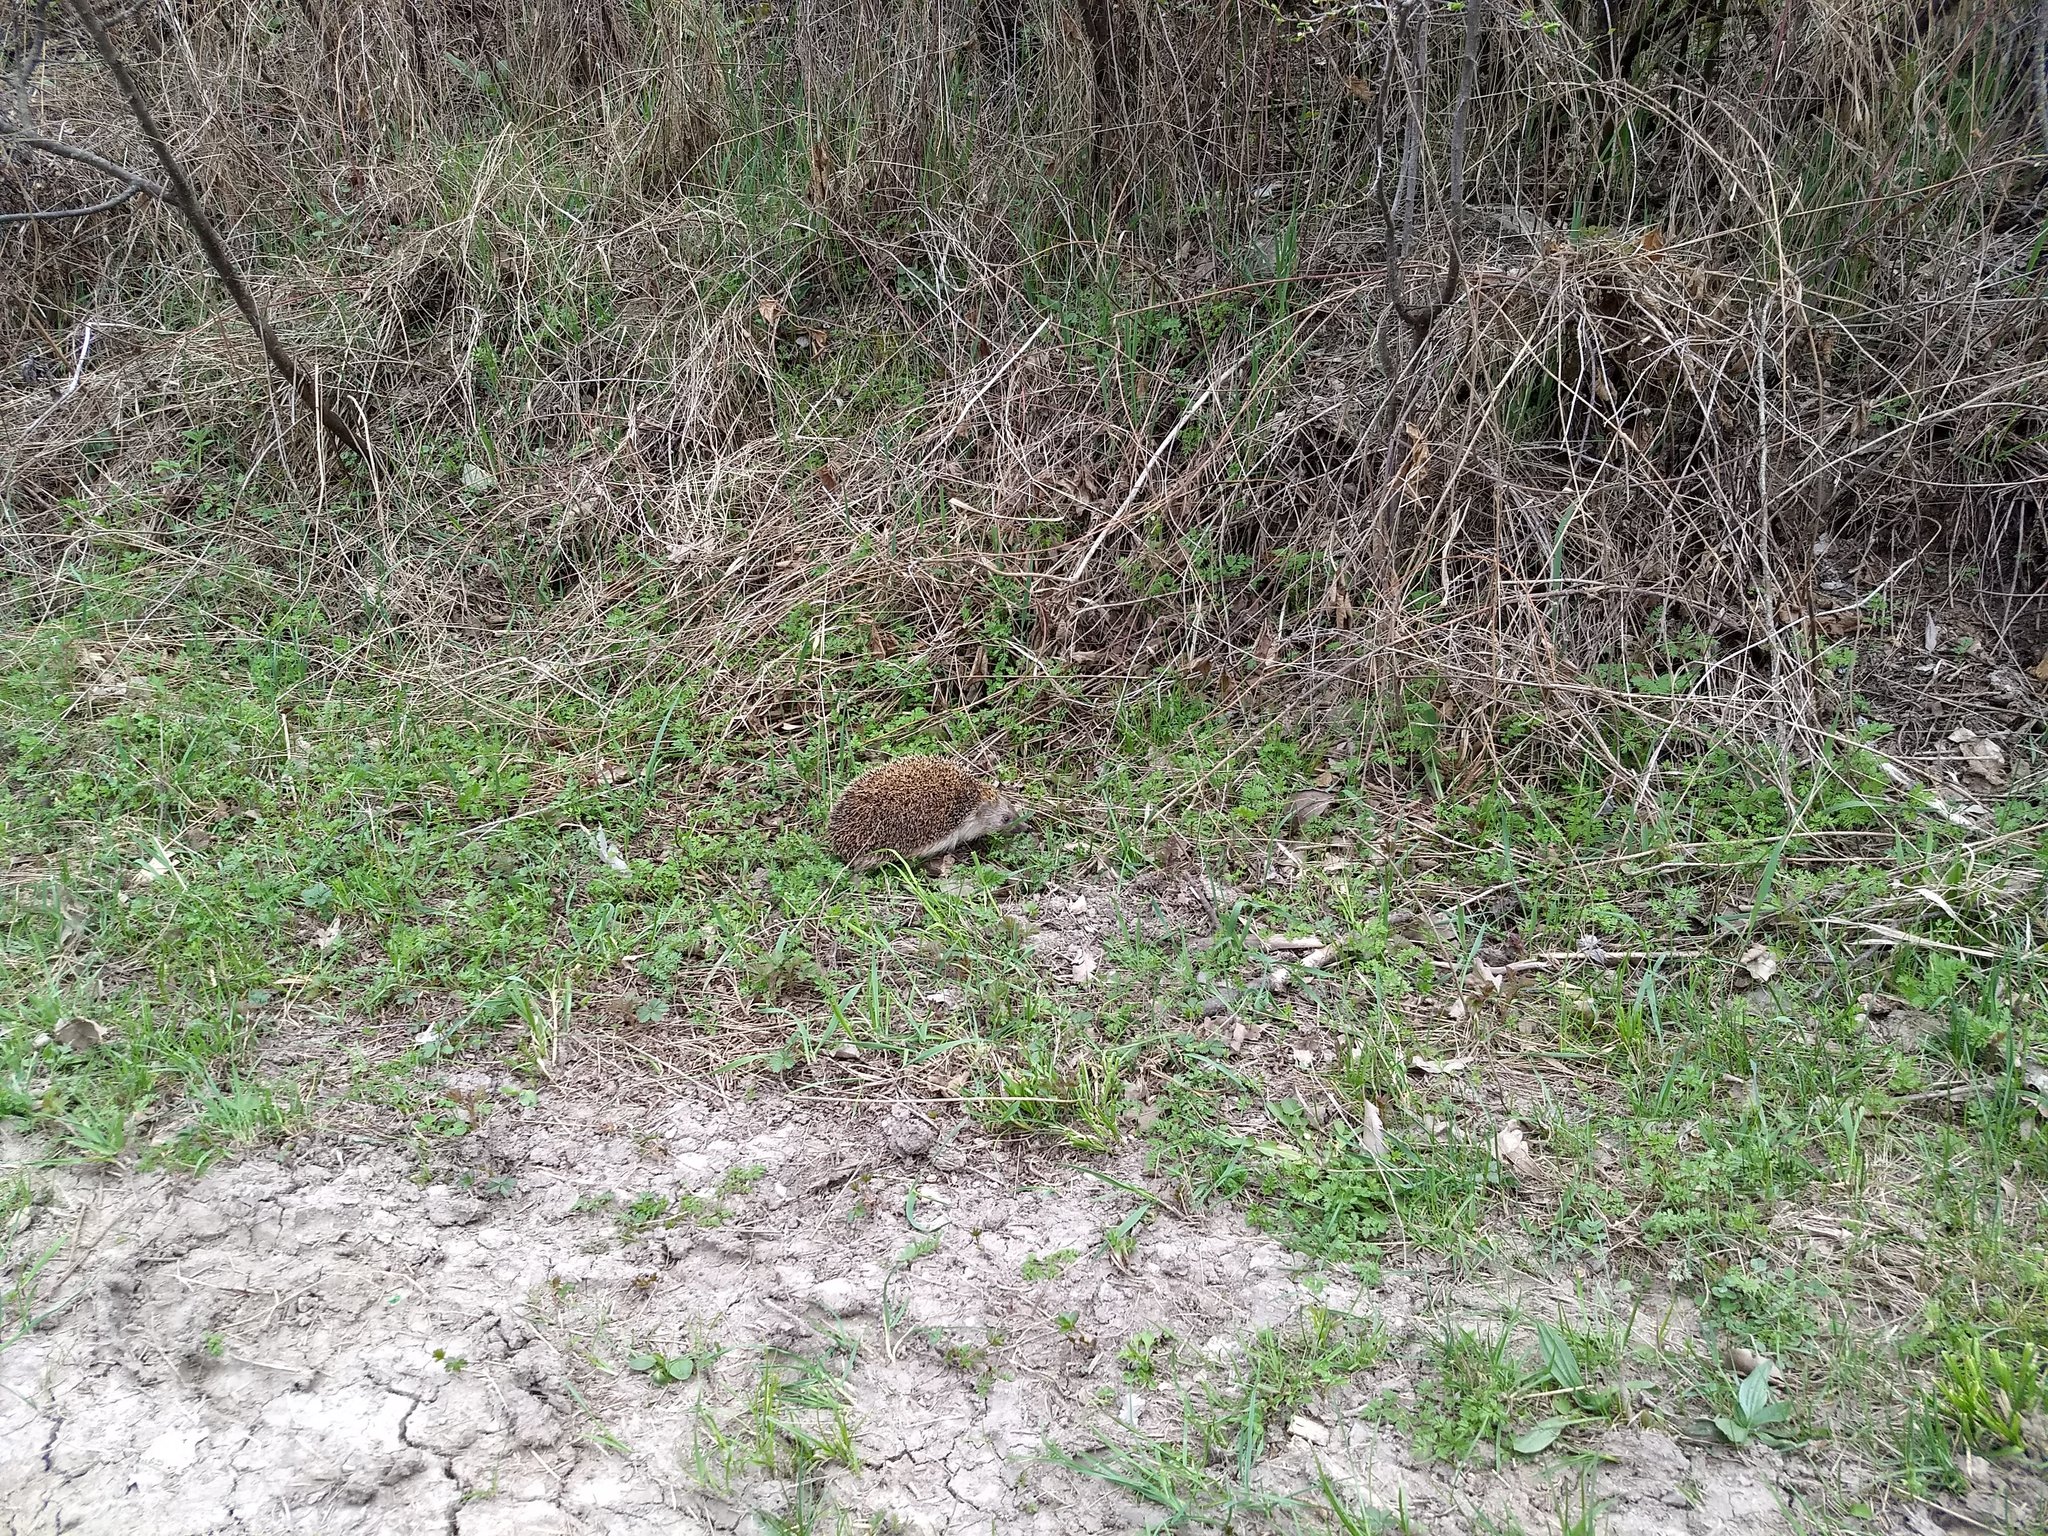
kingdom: Animalia
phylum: Chordata
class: Mammalia
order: Erinaceomorpha
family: Erinaceidae
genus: Erinaceus
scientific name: Erinaceus concolor
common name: Southern white-breasted hedgehog
